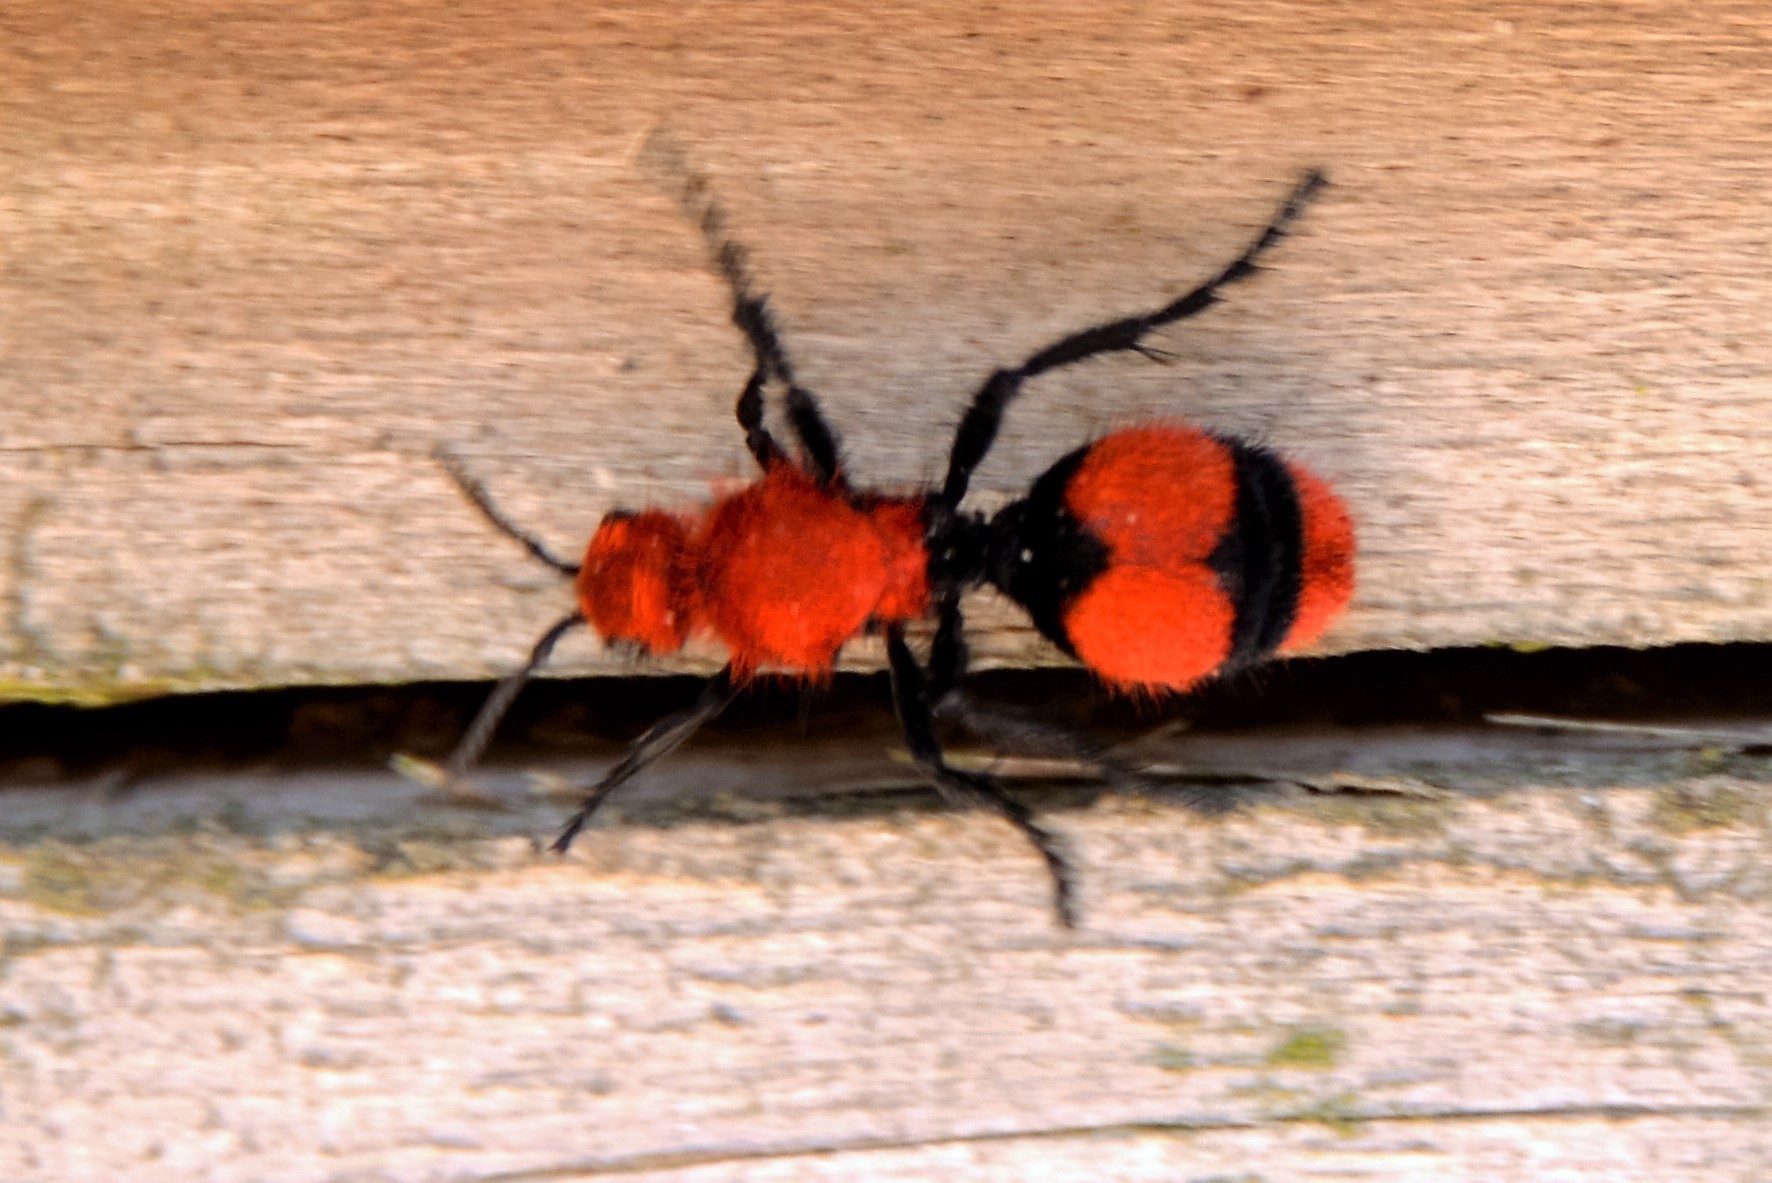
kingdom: Animalia
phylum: Arthropoda
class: Insecta
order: Hymenoptera
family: Mutillidae
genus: Dasymutilla
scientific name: Dasymutilla occidentalis
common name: Common eastern velvet ant
